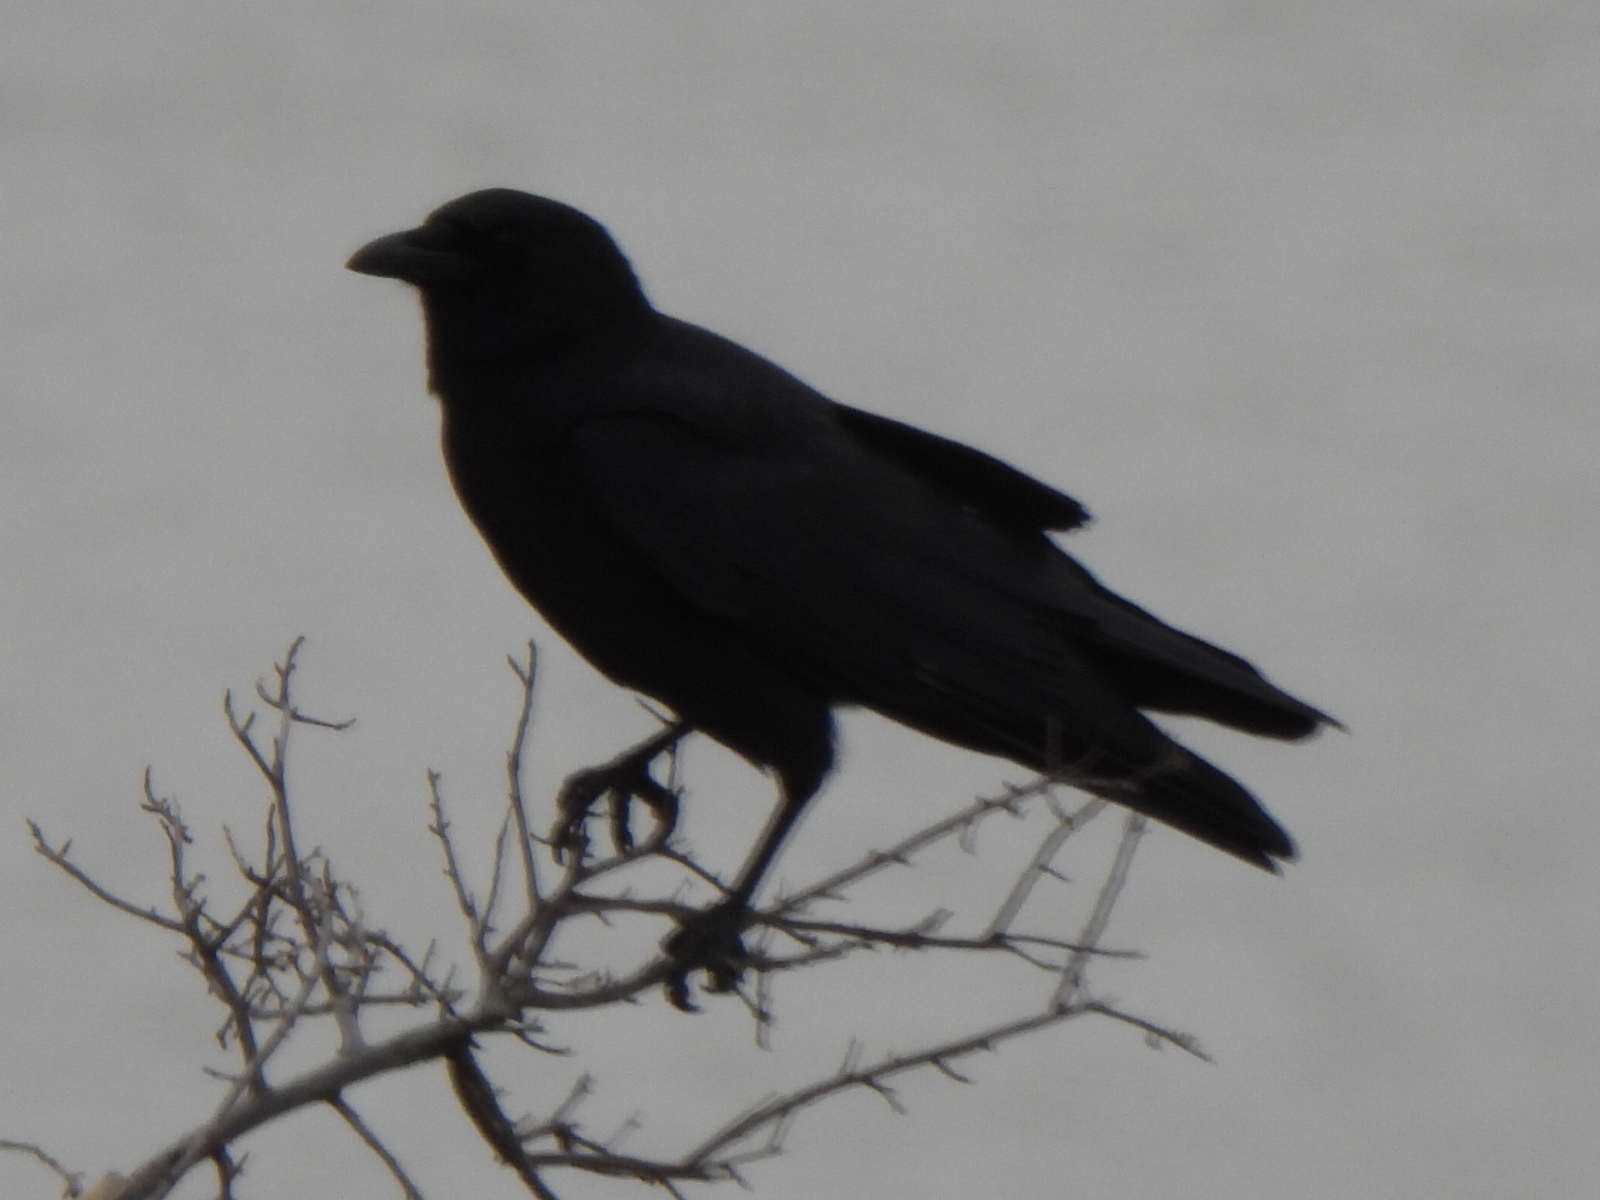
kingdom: Animalia
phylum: Chordata
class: Aves
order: Passeriformes
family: Corvidae
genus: Corvus
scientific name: Corvus brachyrhynchos
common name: American crow
